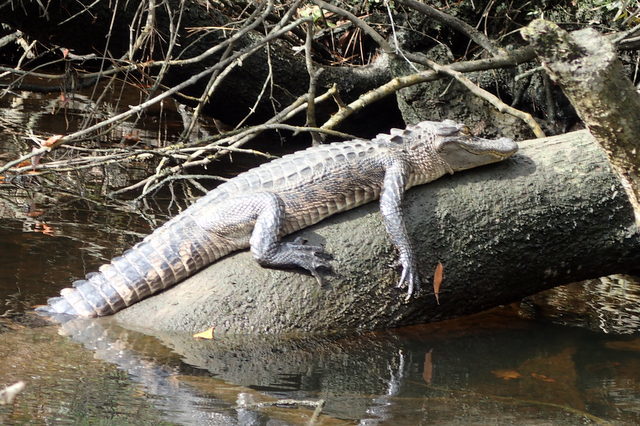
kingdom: Animalia
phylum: Chordata
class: Crocodylia
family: Alligatoridae
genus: Alligator
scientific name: Alligator mississippiensis
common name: American alligator
